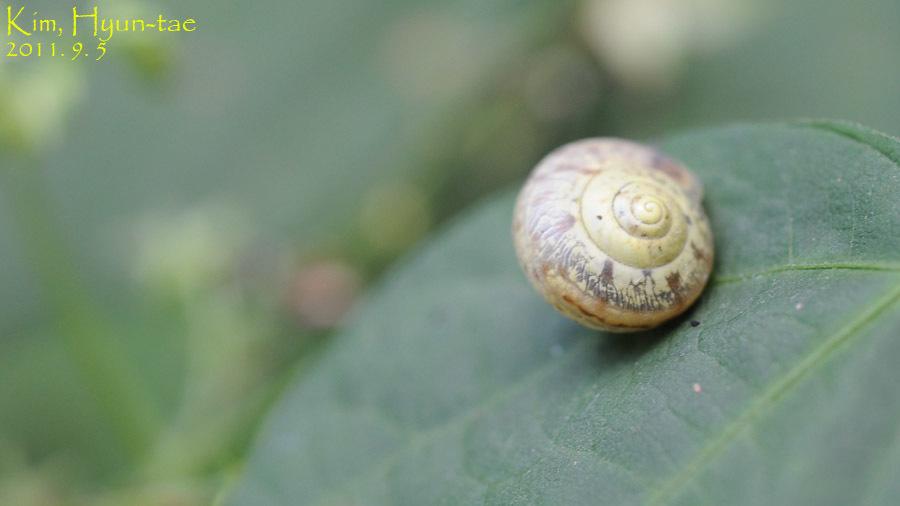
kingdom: Animalia
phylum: Mollusca
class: Gastropoda
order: Stylommatophora
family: Camaenidae
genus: Chosenelix
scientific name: Chosenelix problematica
